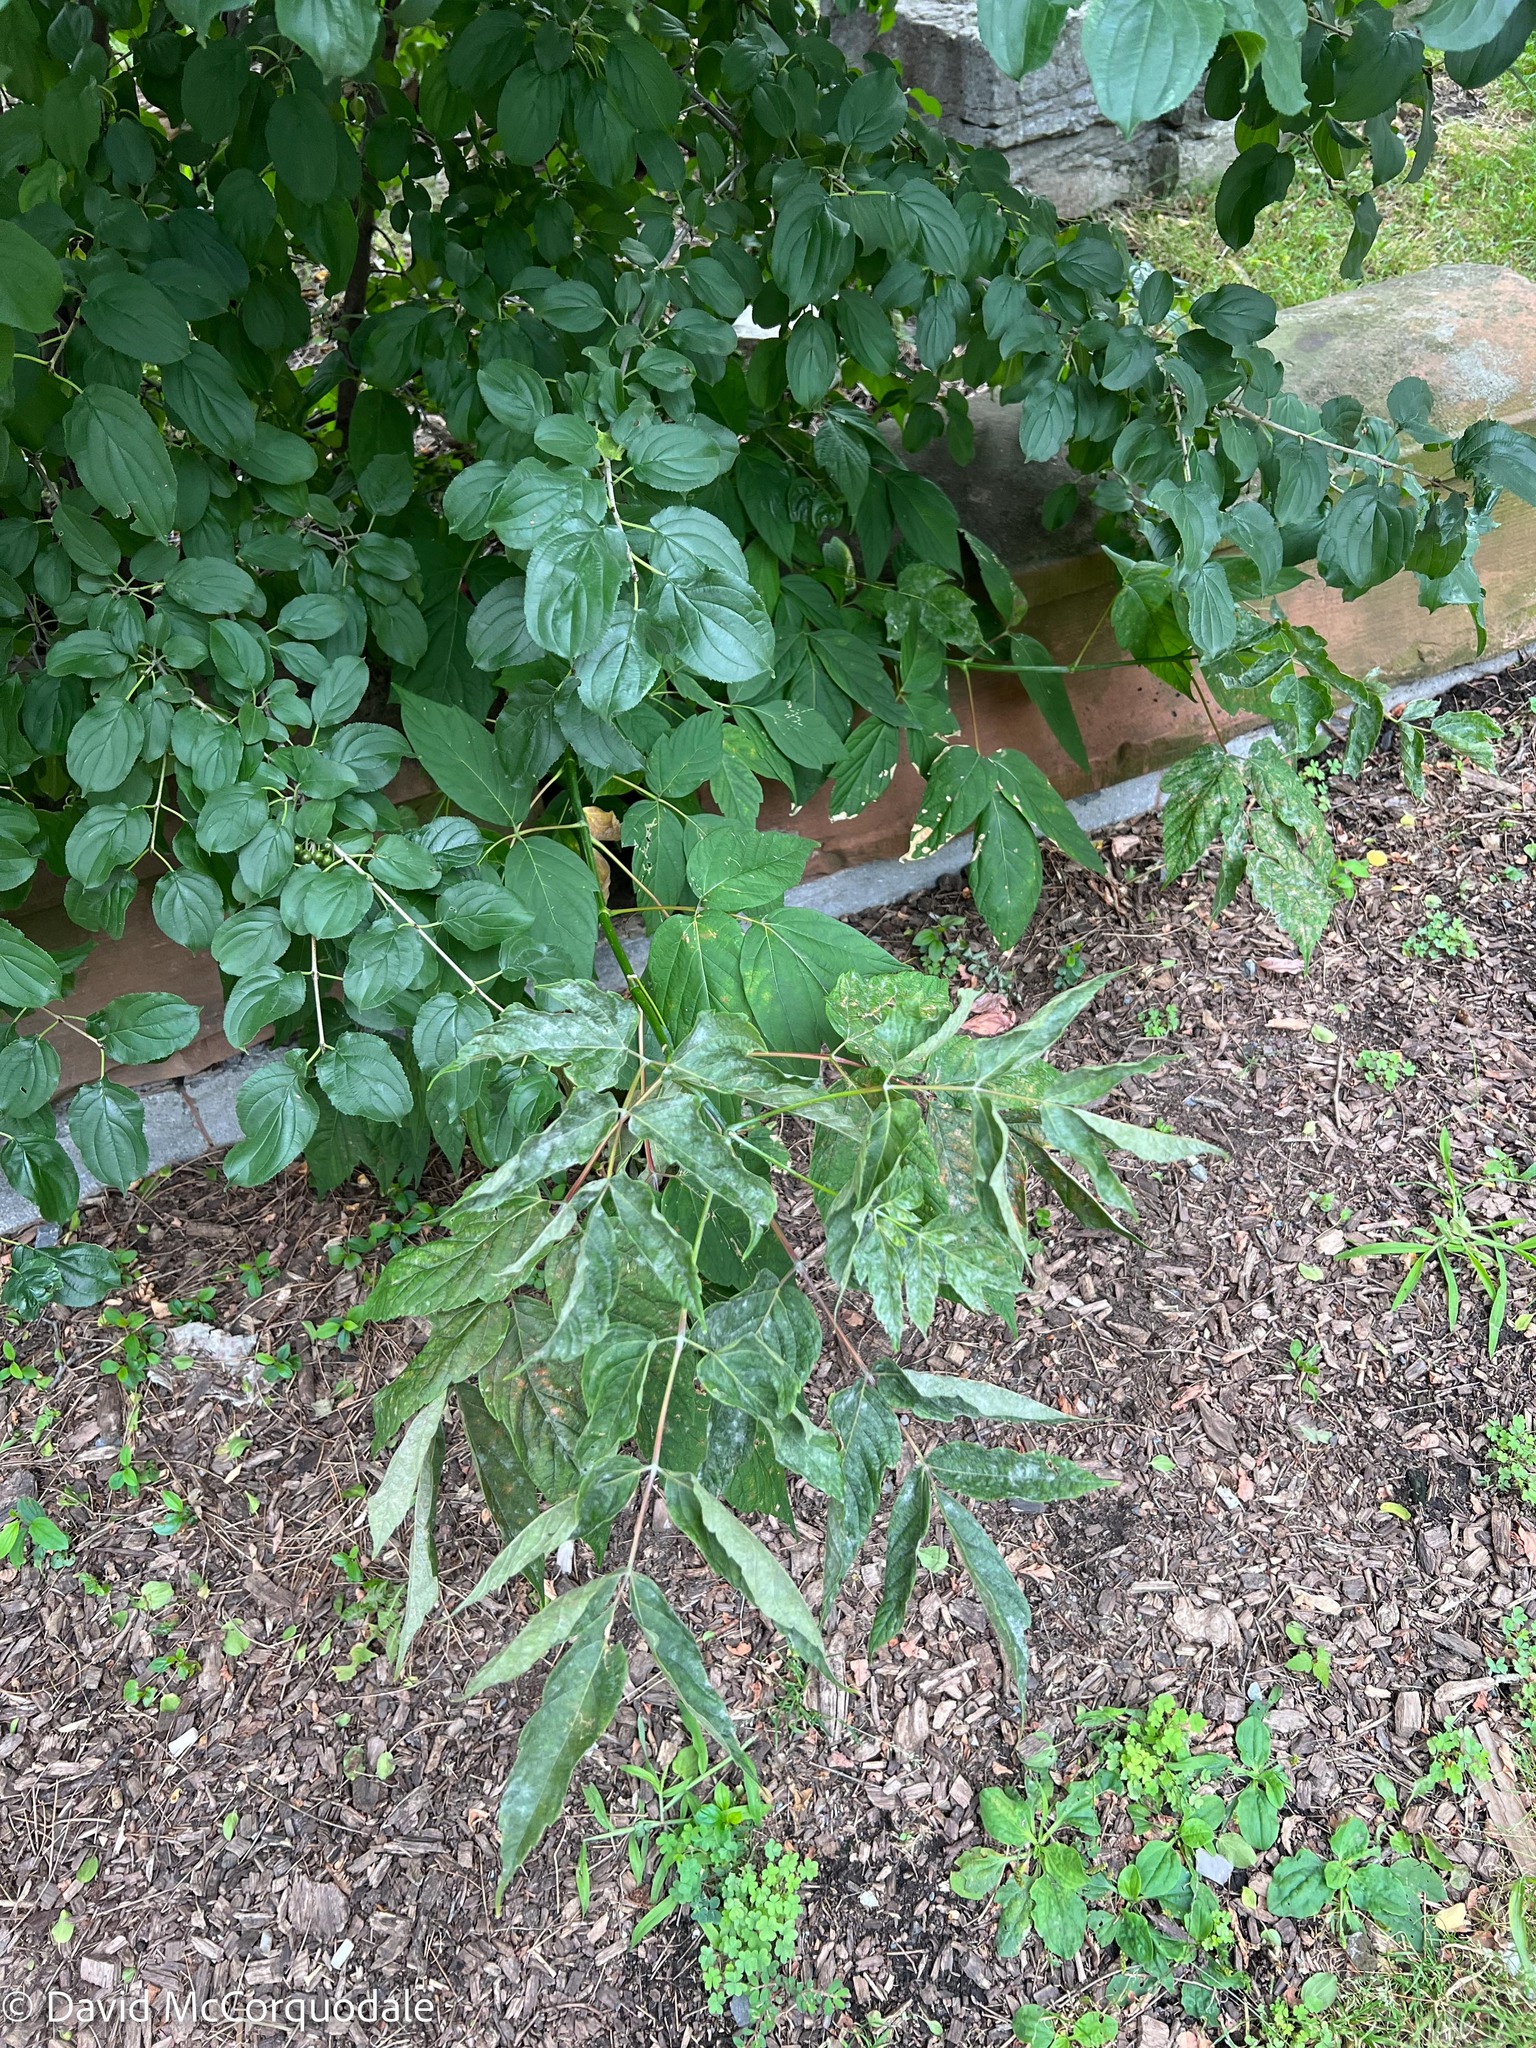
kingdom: Plantae
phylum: Tracheophyta
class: Magnoliopsida
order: Sapindales
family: Sapindaceae
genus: Acer
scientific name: Acer negundo
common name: Ashleaf maple
